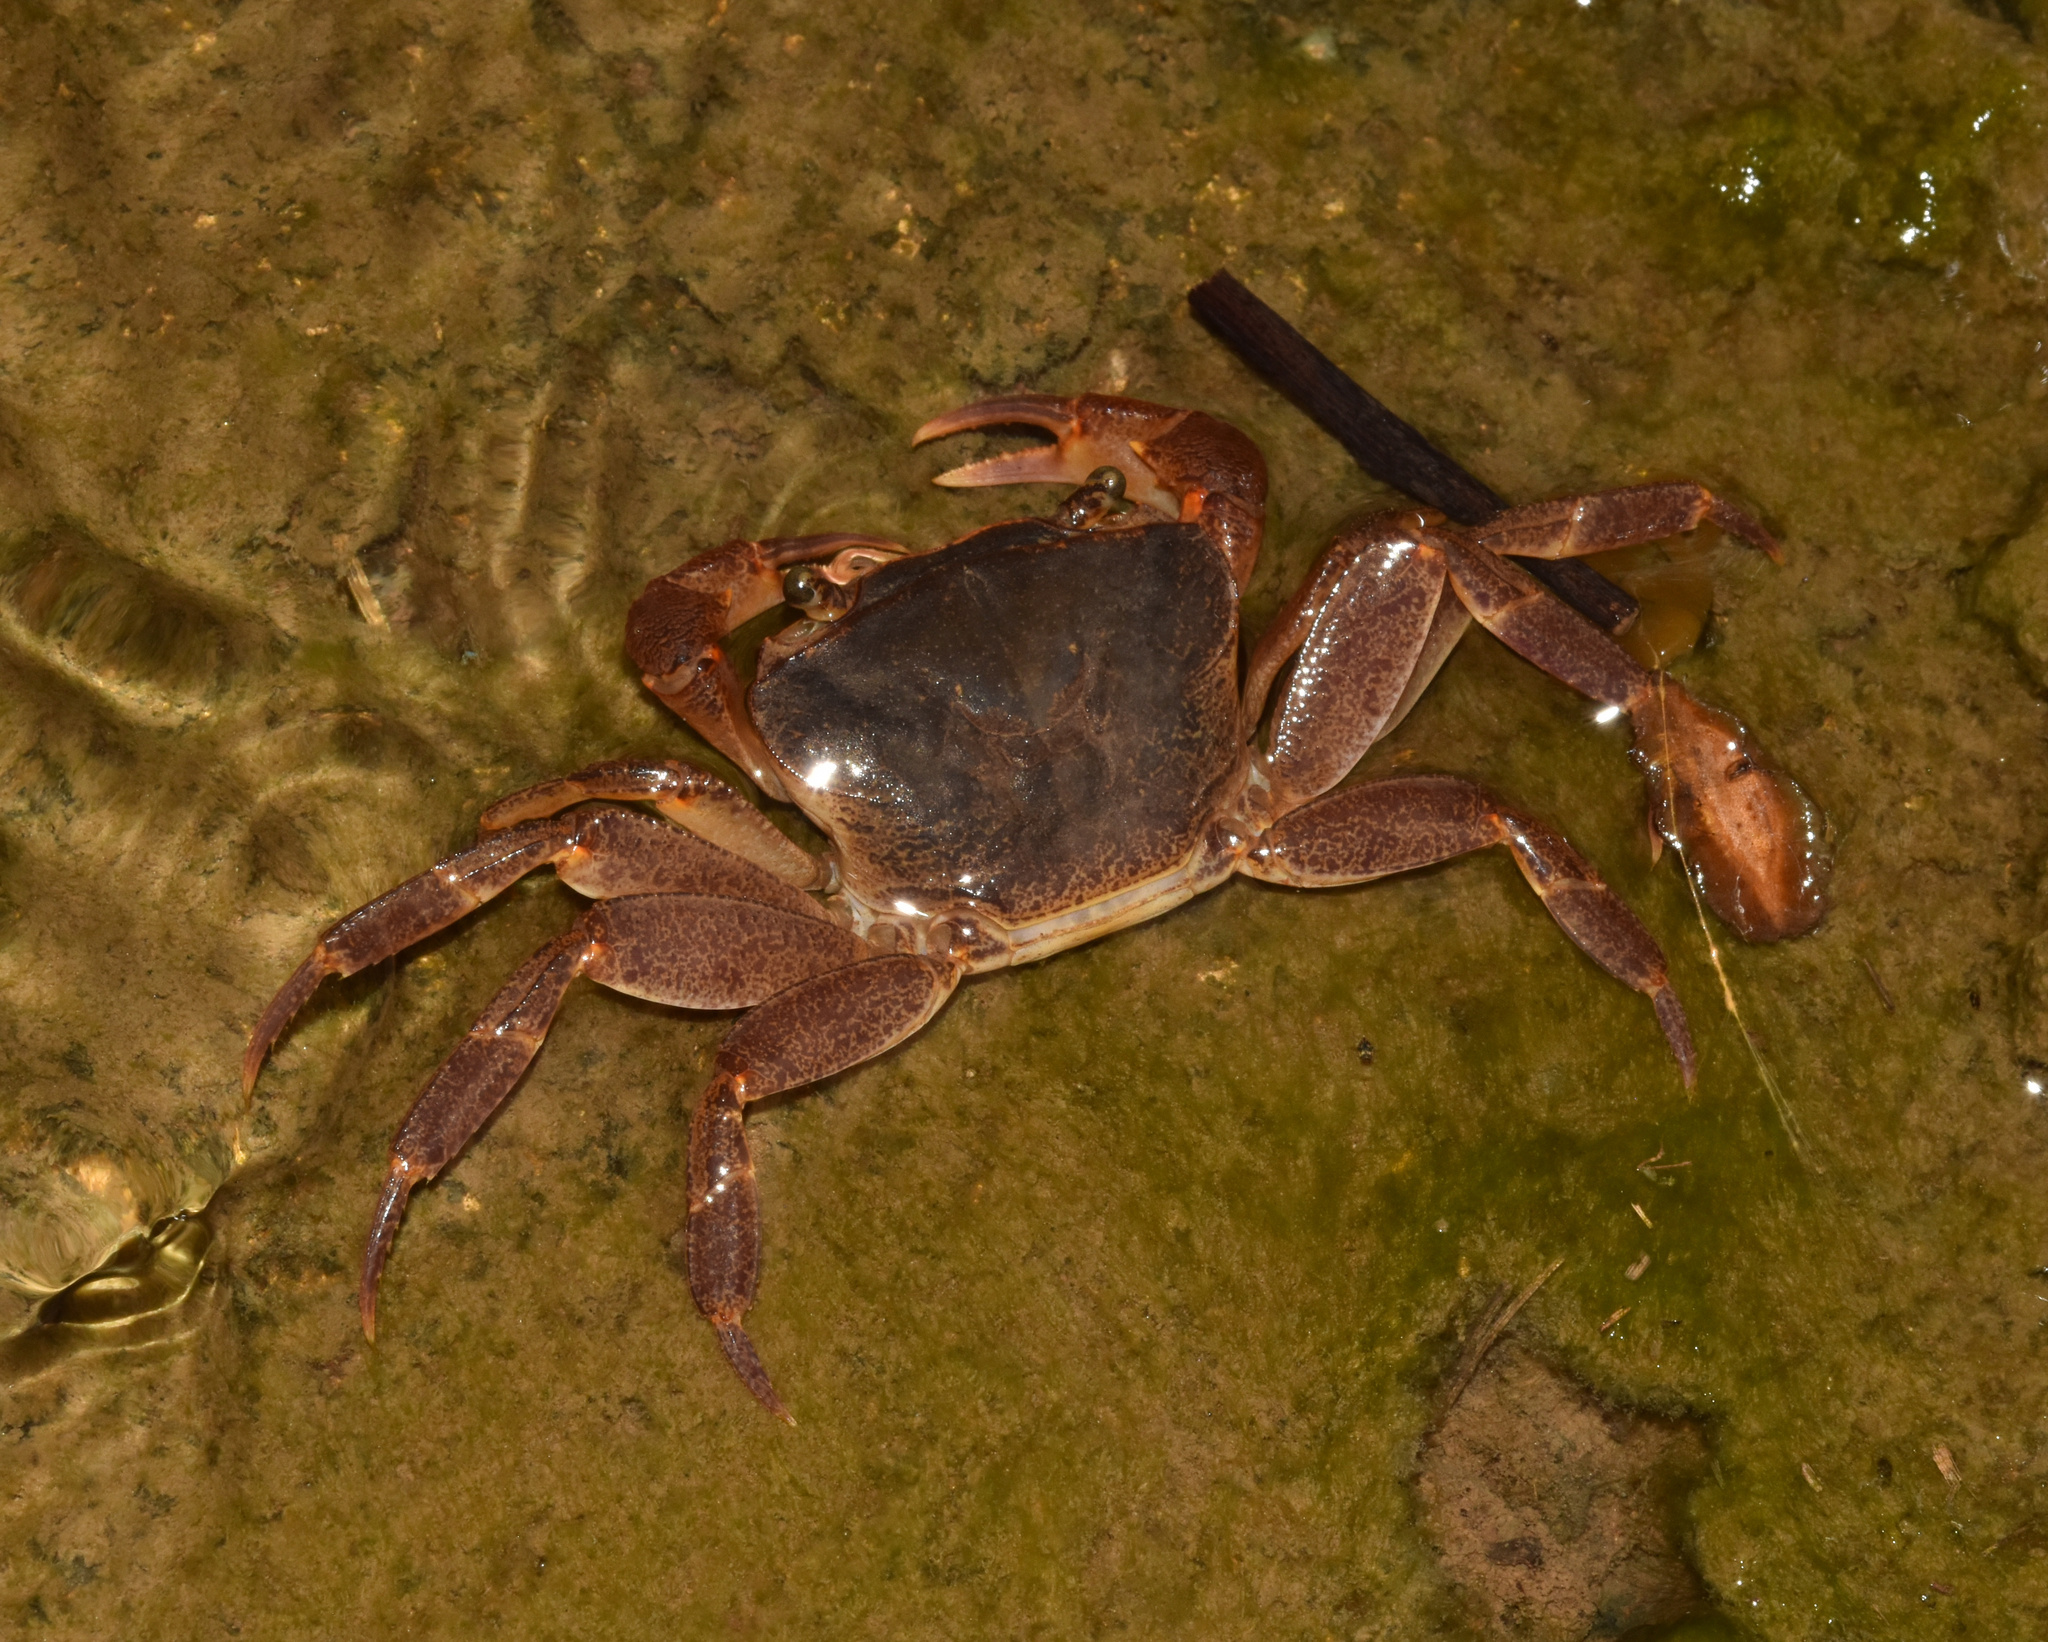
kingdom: Animalia
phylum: Arthropoda
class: Malacostraca
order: Decapoda
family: Potamonautidae
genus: Potamonautes
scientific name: Potamonautes sidneyi
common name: Natal river crab
